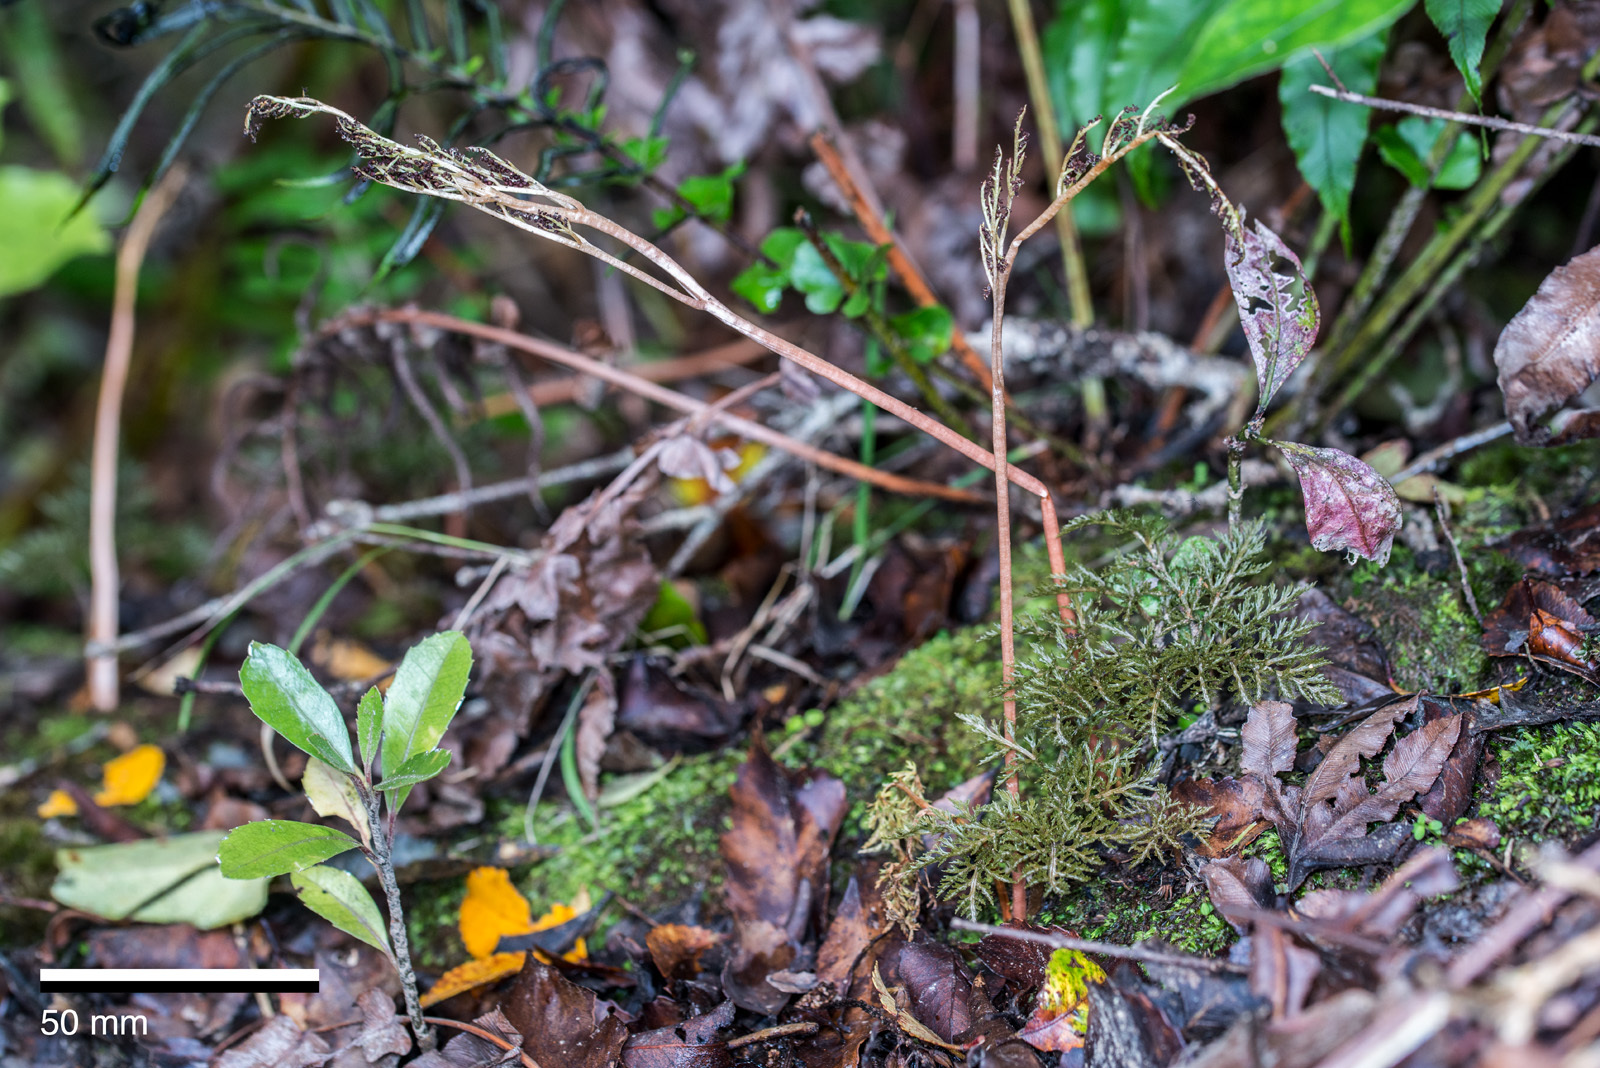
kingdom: Plantae
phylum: Tracheophyta
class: Polypodiopsida
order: Ophioglossales
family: Ophioglossaceae
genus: Sceptridium
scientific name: Sceptridium biforme
